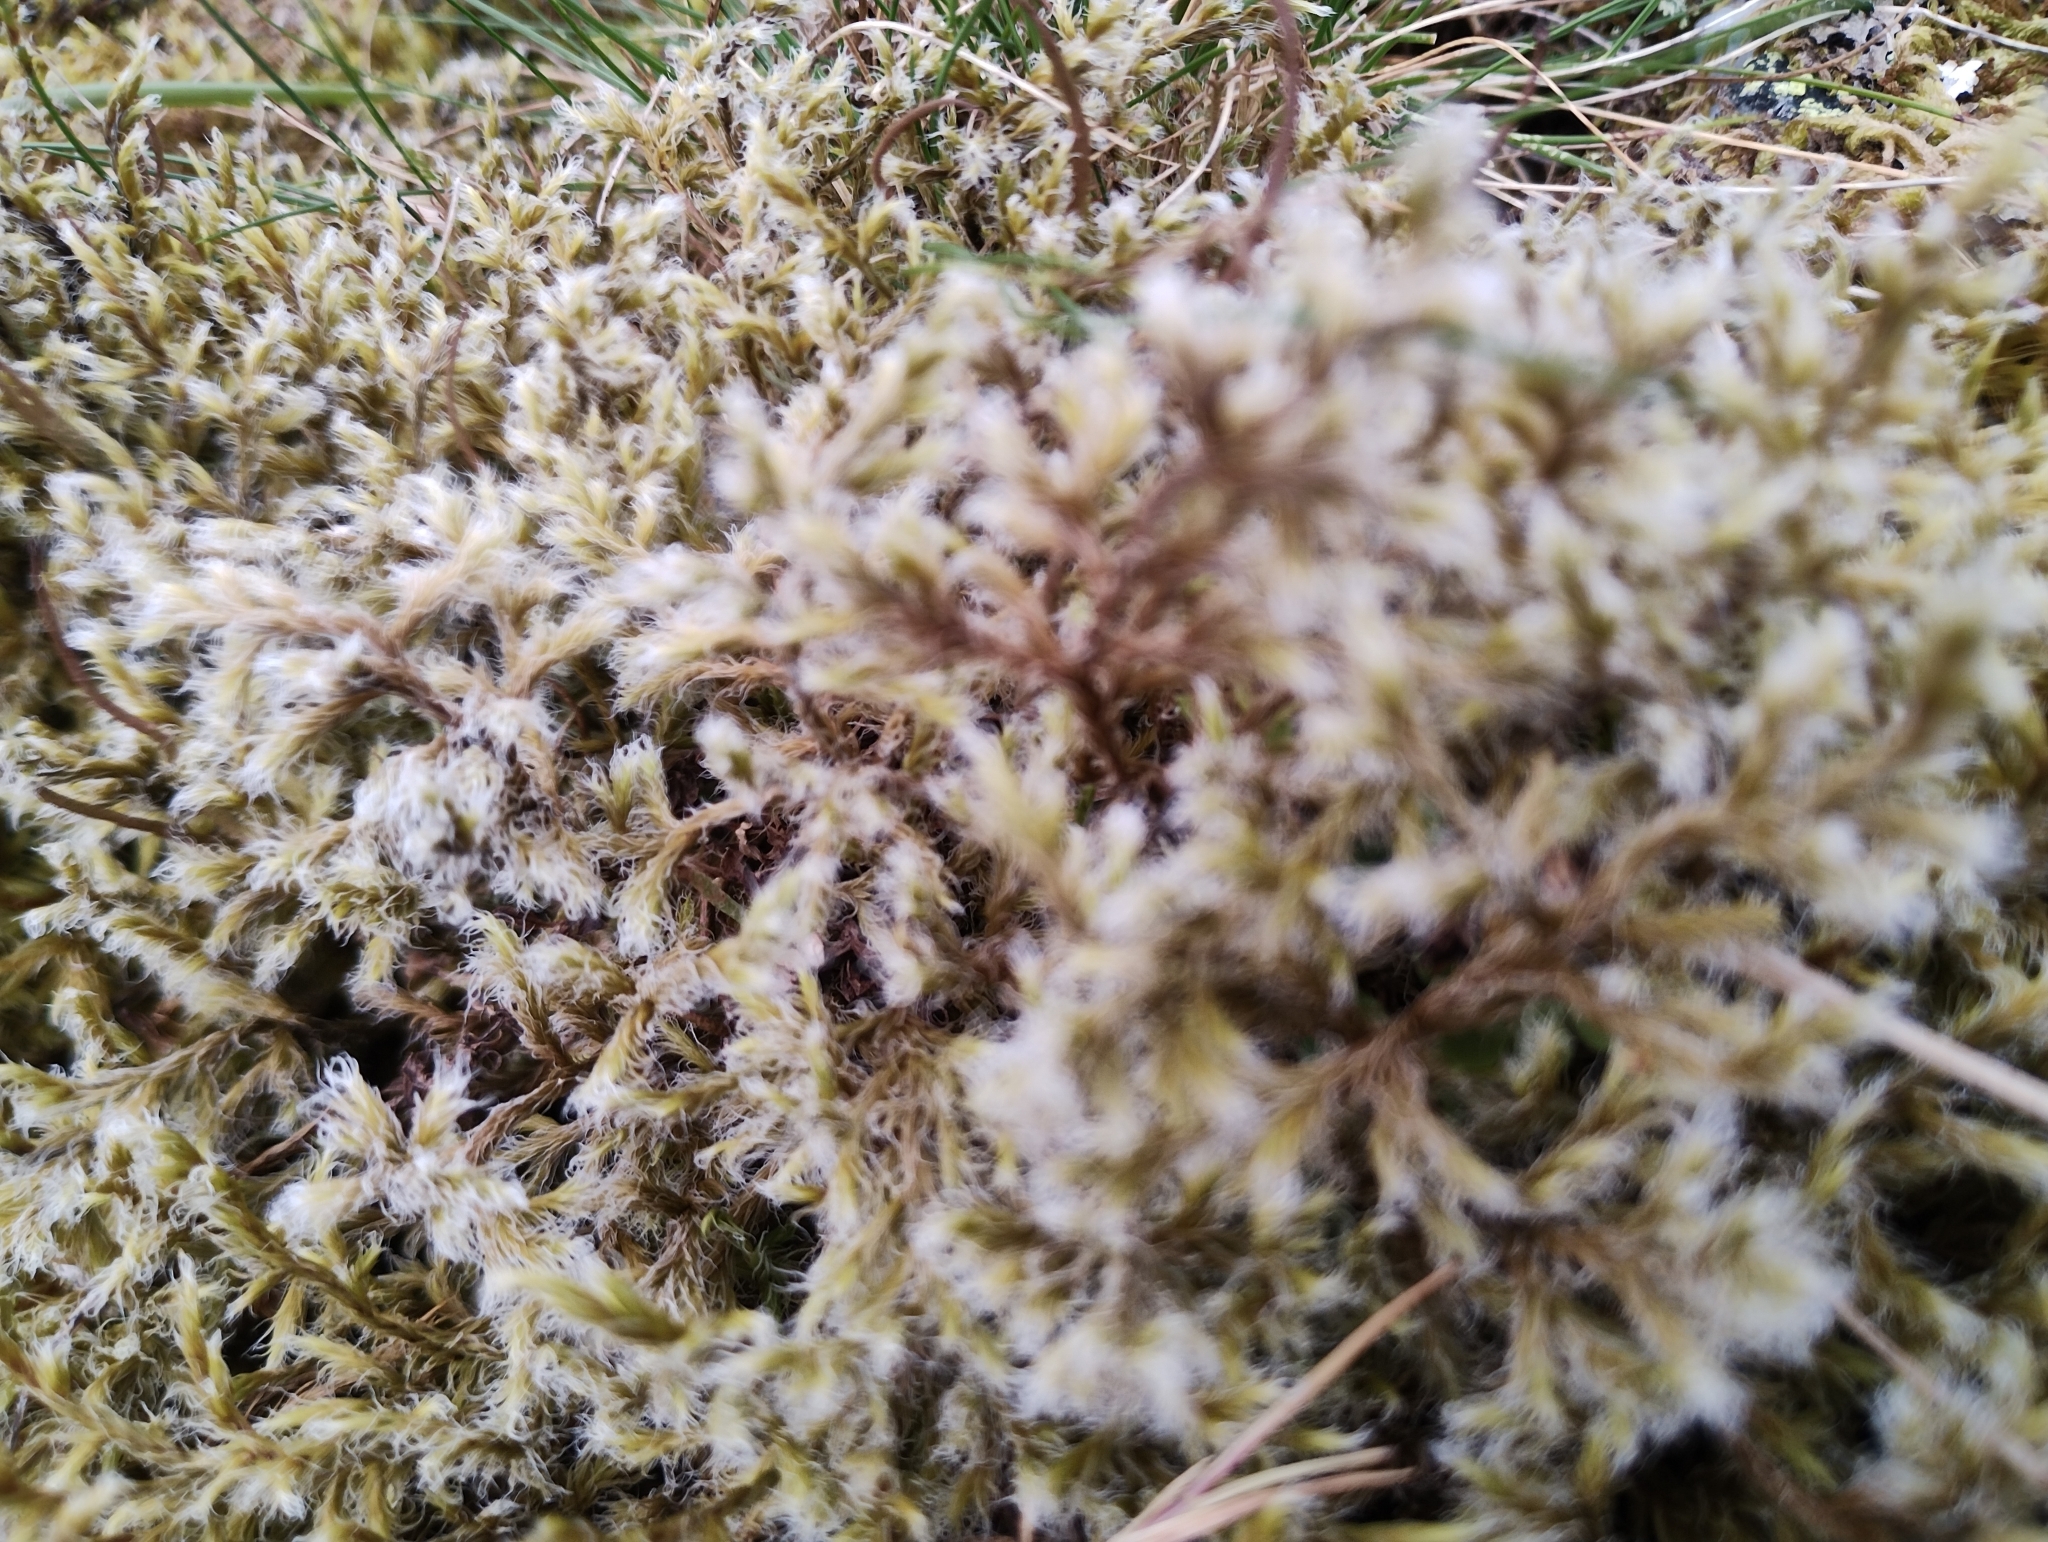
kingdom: Plantae
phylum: Bryophyta
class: Bryopsida
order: Grimmiales
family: Grimmiaceae
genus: Racomitrium
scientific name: Racomitrium lanuginosum
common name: Hoary rock moss
